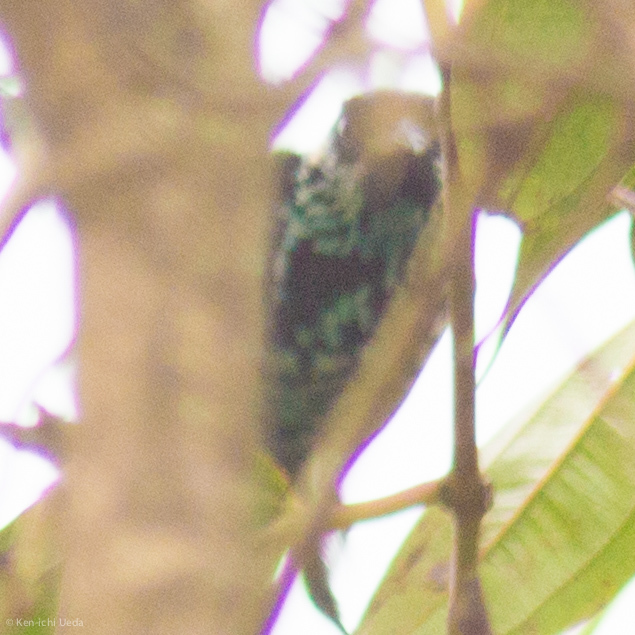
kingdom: Animalia
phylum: Chordata
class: Aves
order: Passeriformes
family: Thraupidae
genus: Tangara
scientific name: Tangara nigroviridis
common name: Beryl-spangled tanager
